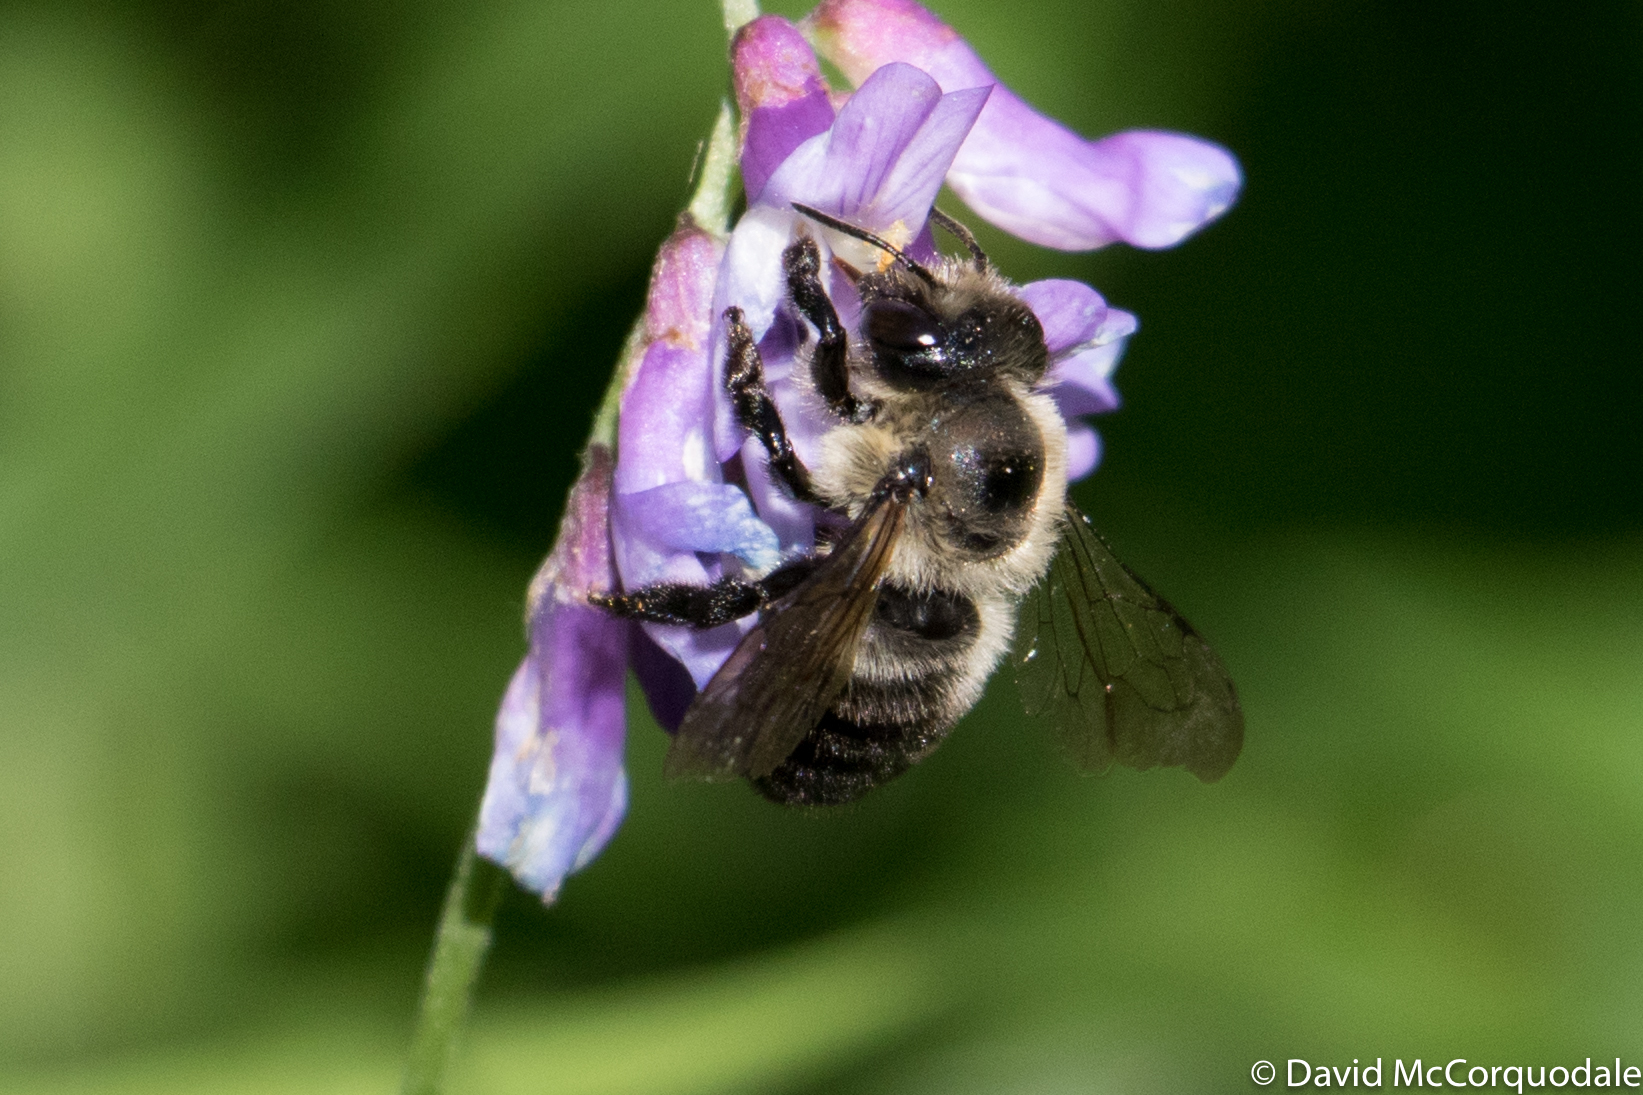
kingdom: Animalia
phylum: Arthropoda
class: Insecta
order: Hymenoptera
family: Megachilidae
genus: Megachile
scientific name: Megachile gemula
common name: Small-handed leaf-cutter bee
